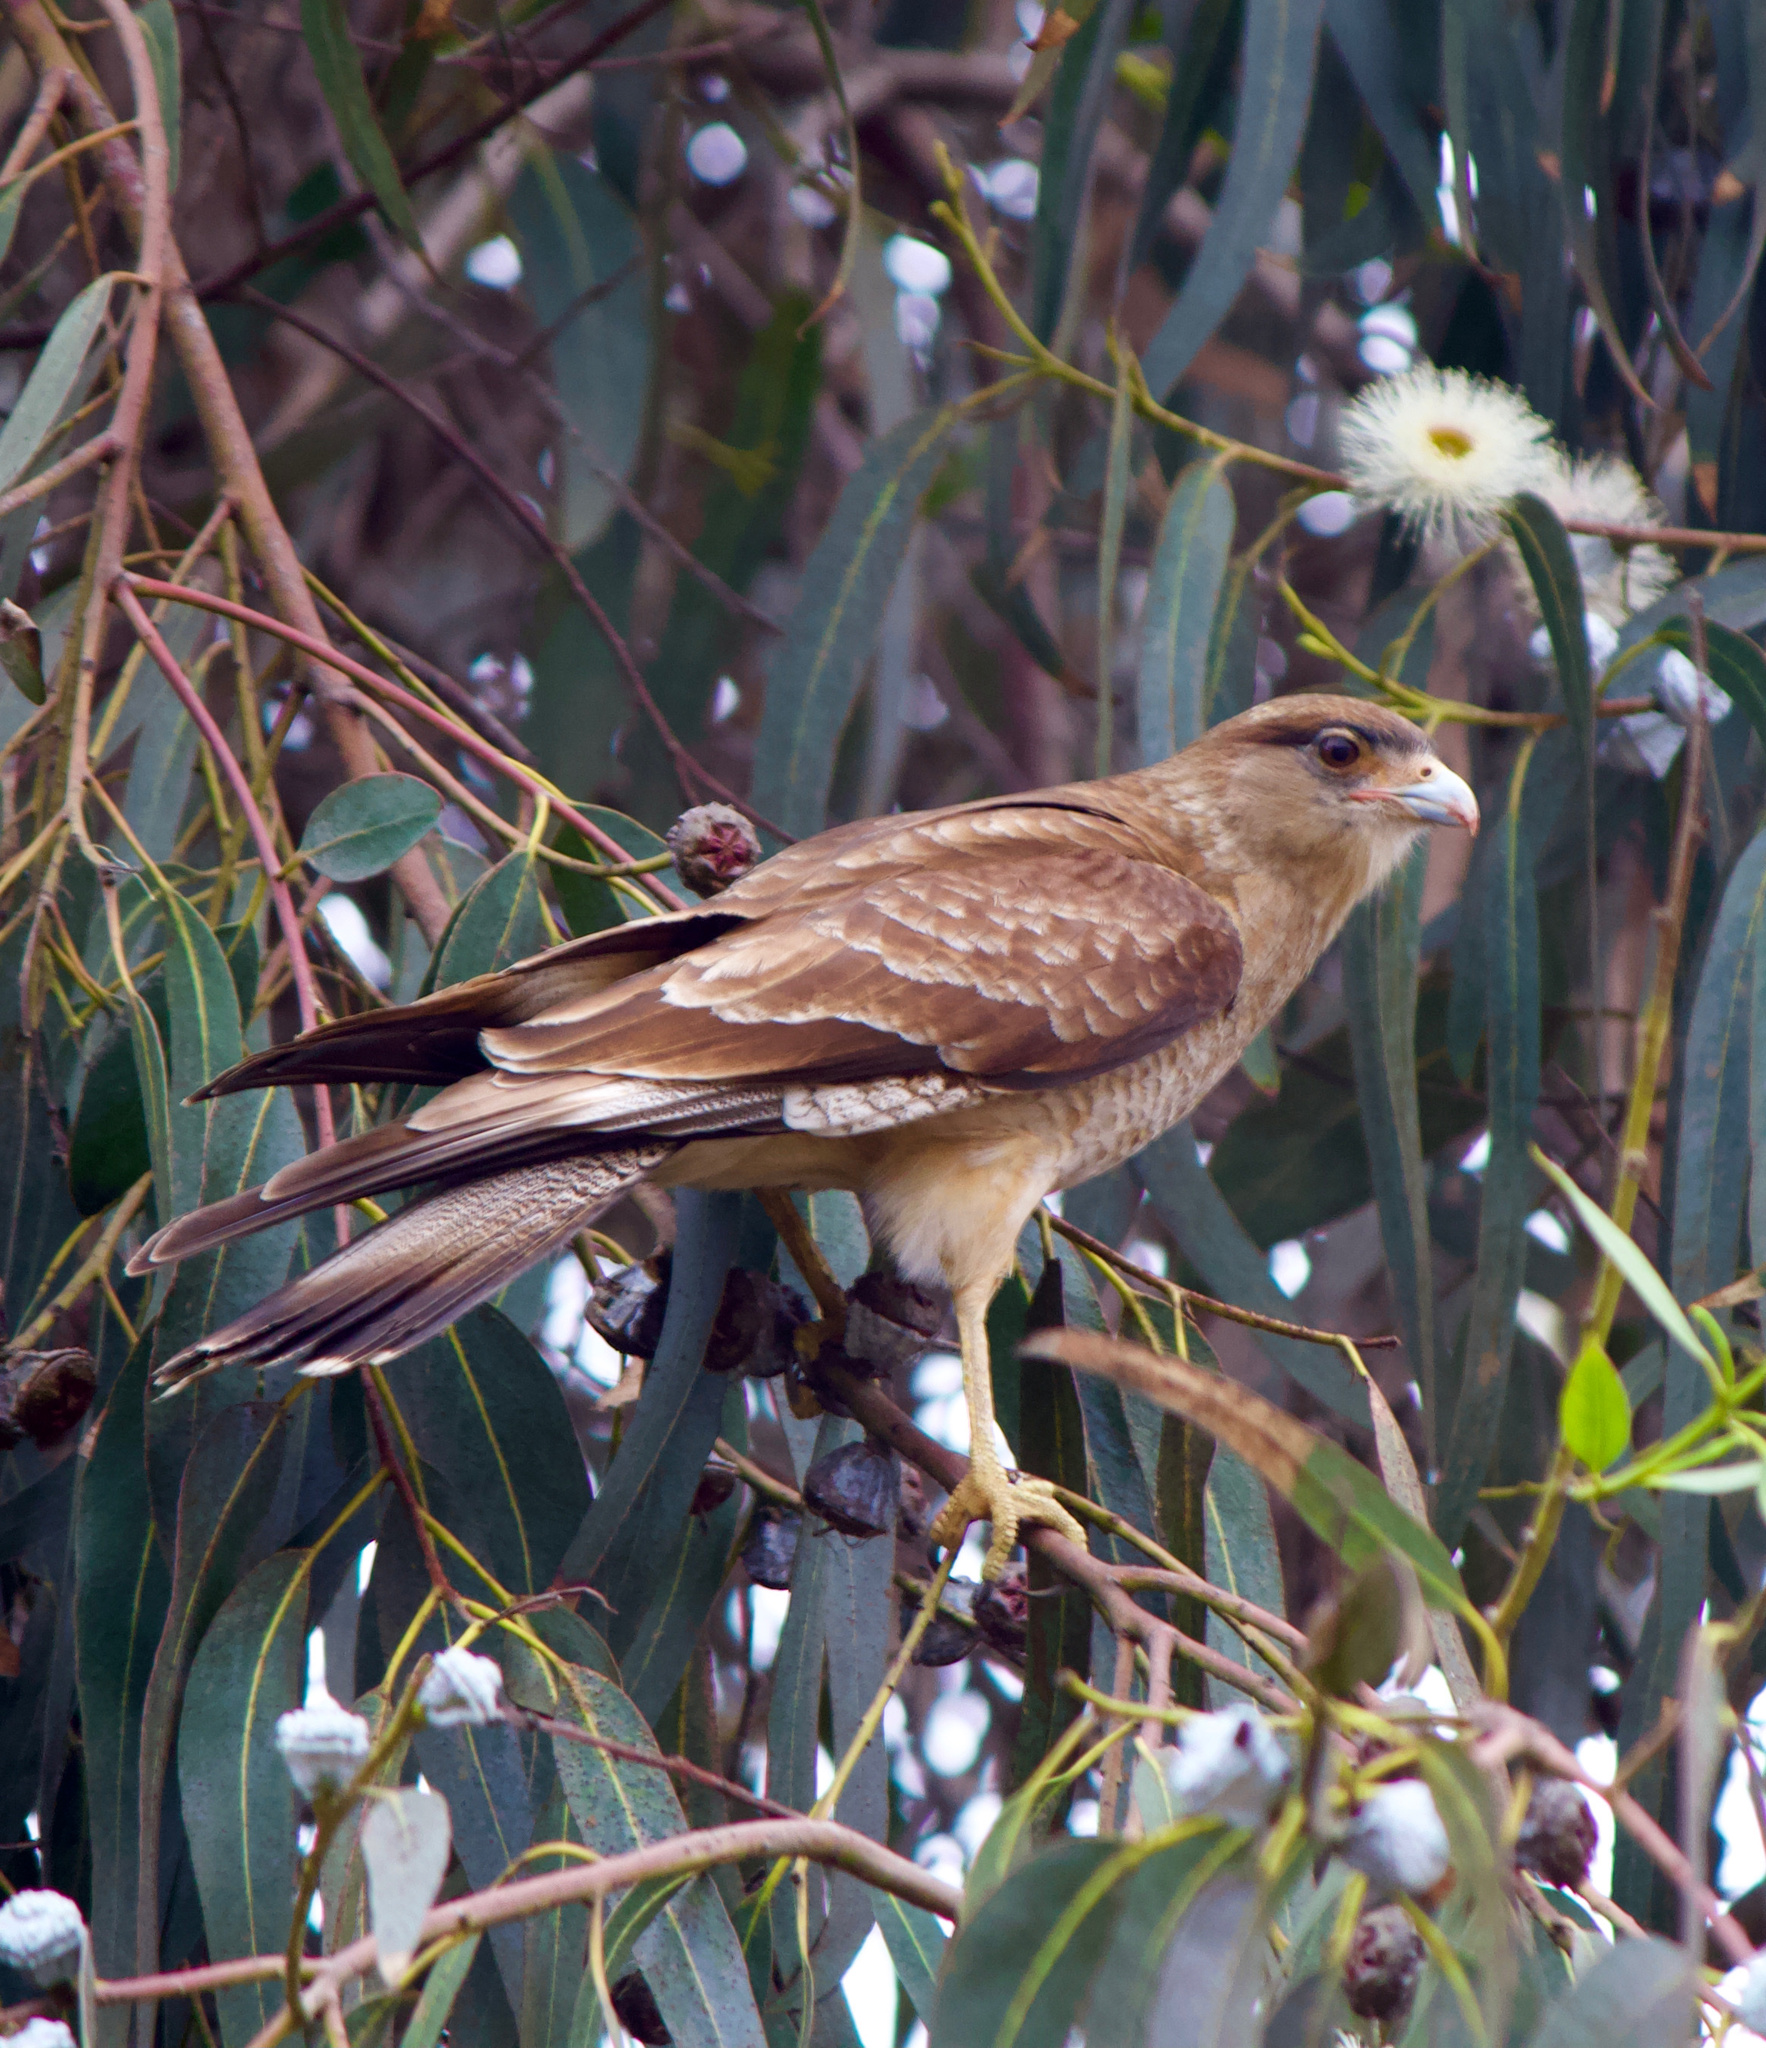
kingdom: Animalia
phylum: Chordata
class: Aves
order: Falconiformes
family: Falconidae
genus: Daptrius
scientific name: Daptrius
